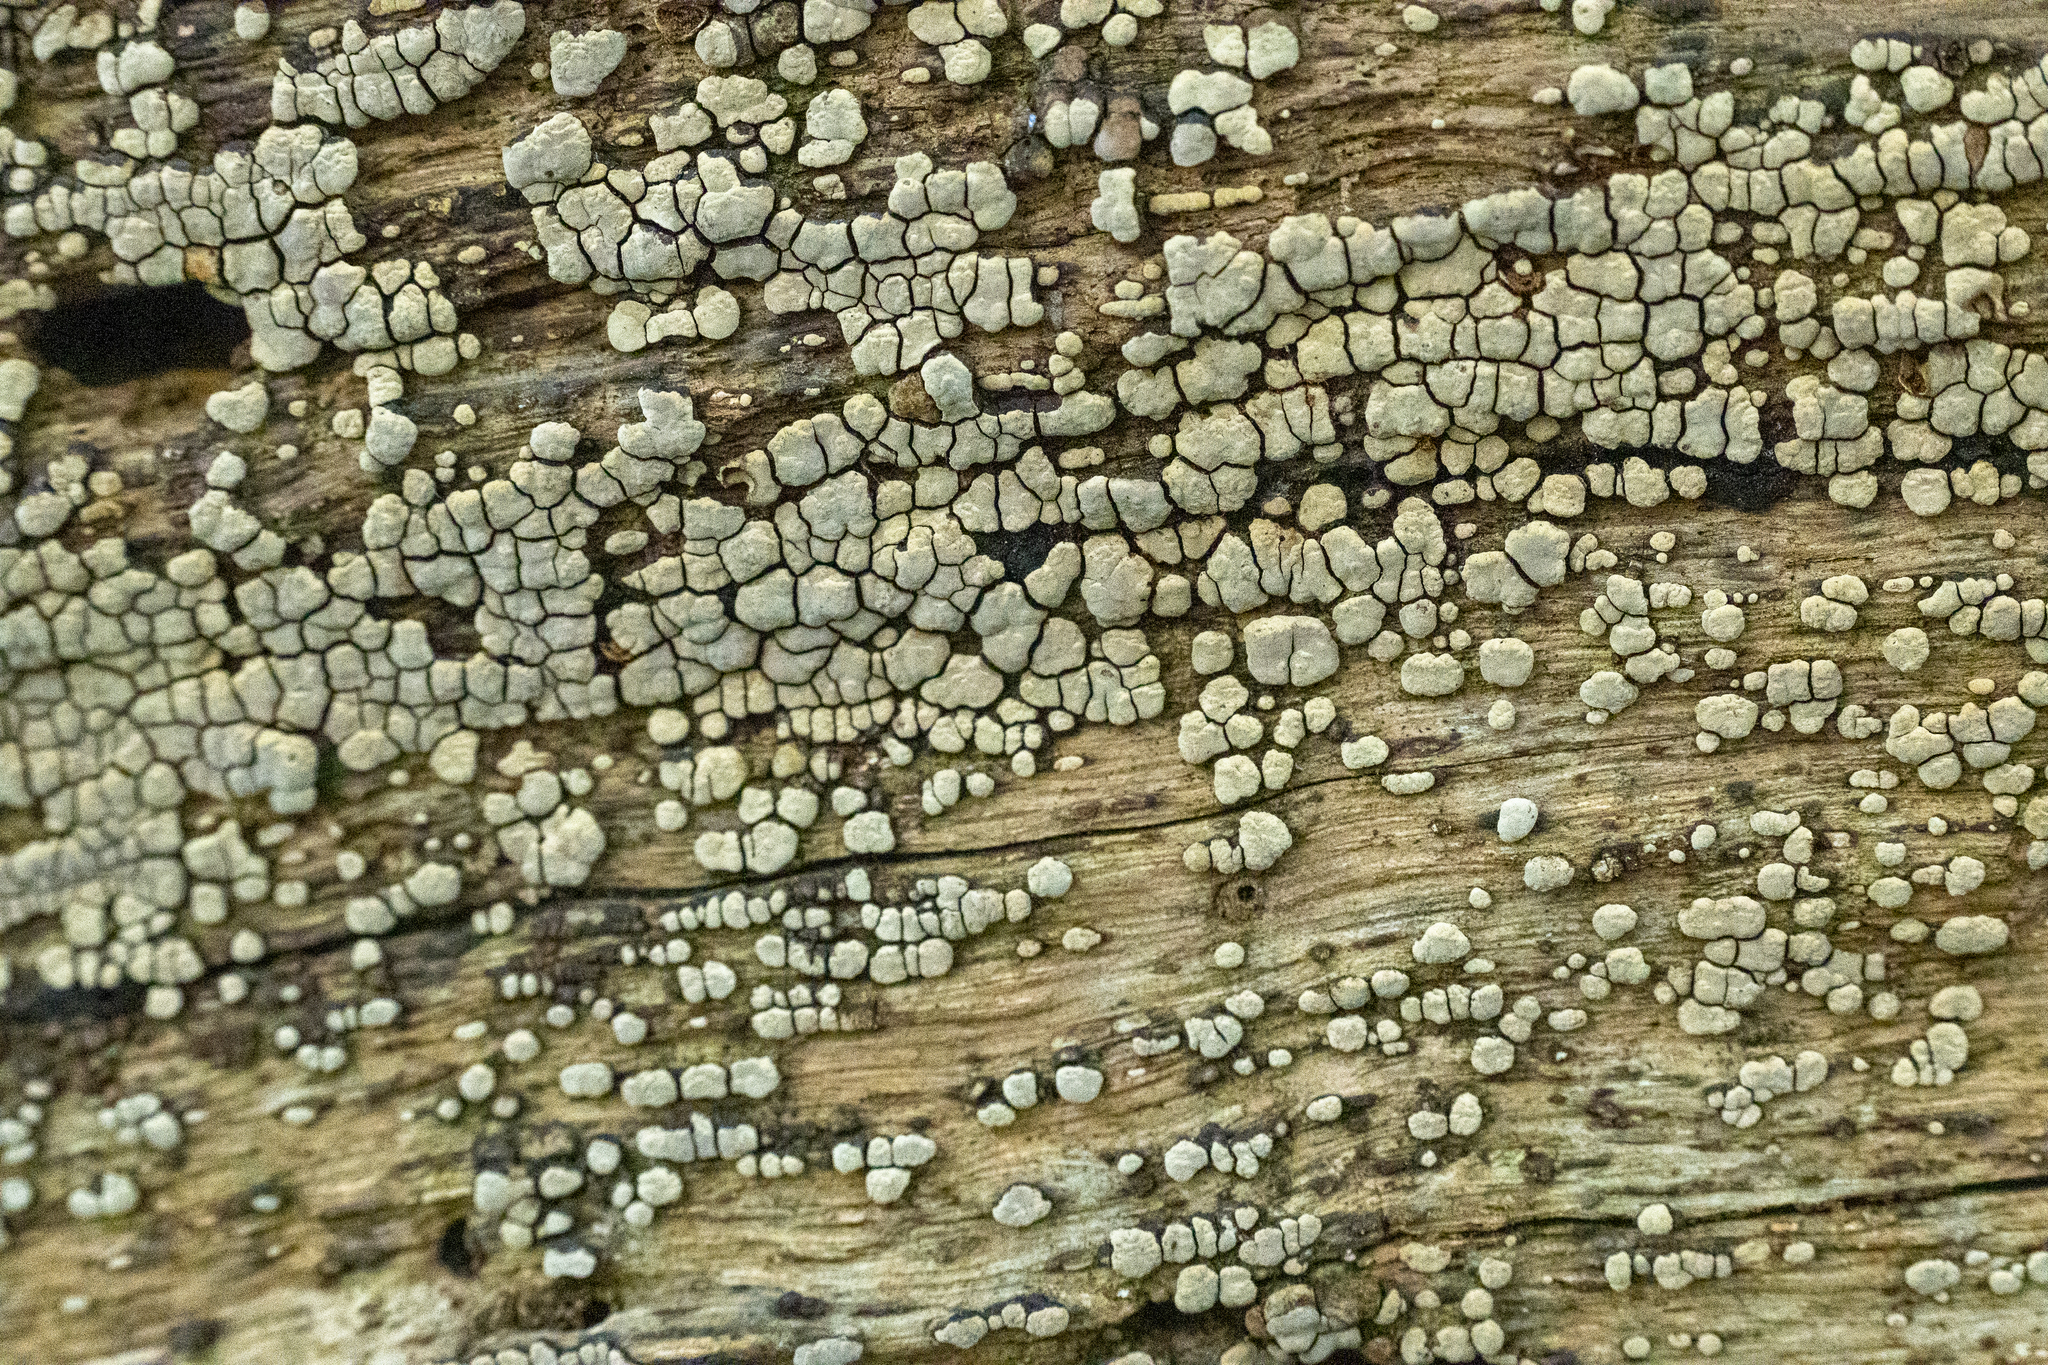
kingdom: Fungi
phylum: Basidiomycota
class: Agaricomycetes
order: Russulales
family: Stereaceae
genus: Xylobolus
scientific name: Xylobolus frustulatus
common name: Ceramic parchment
